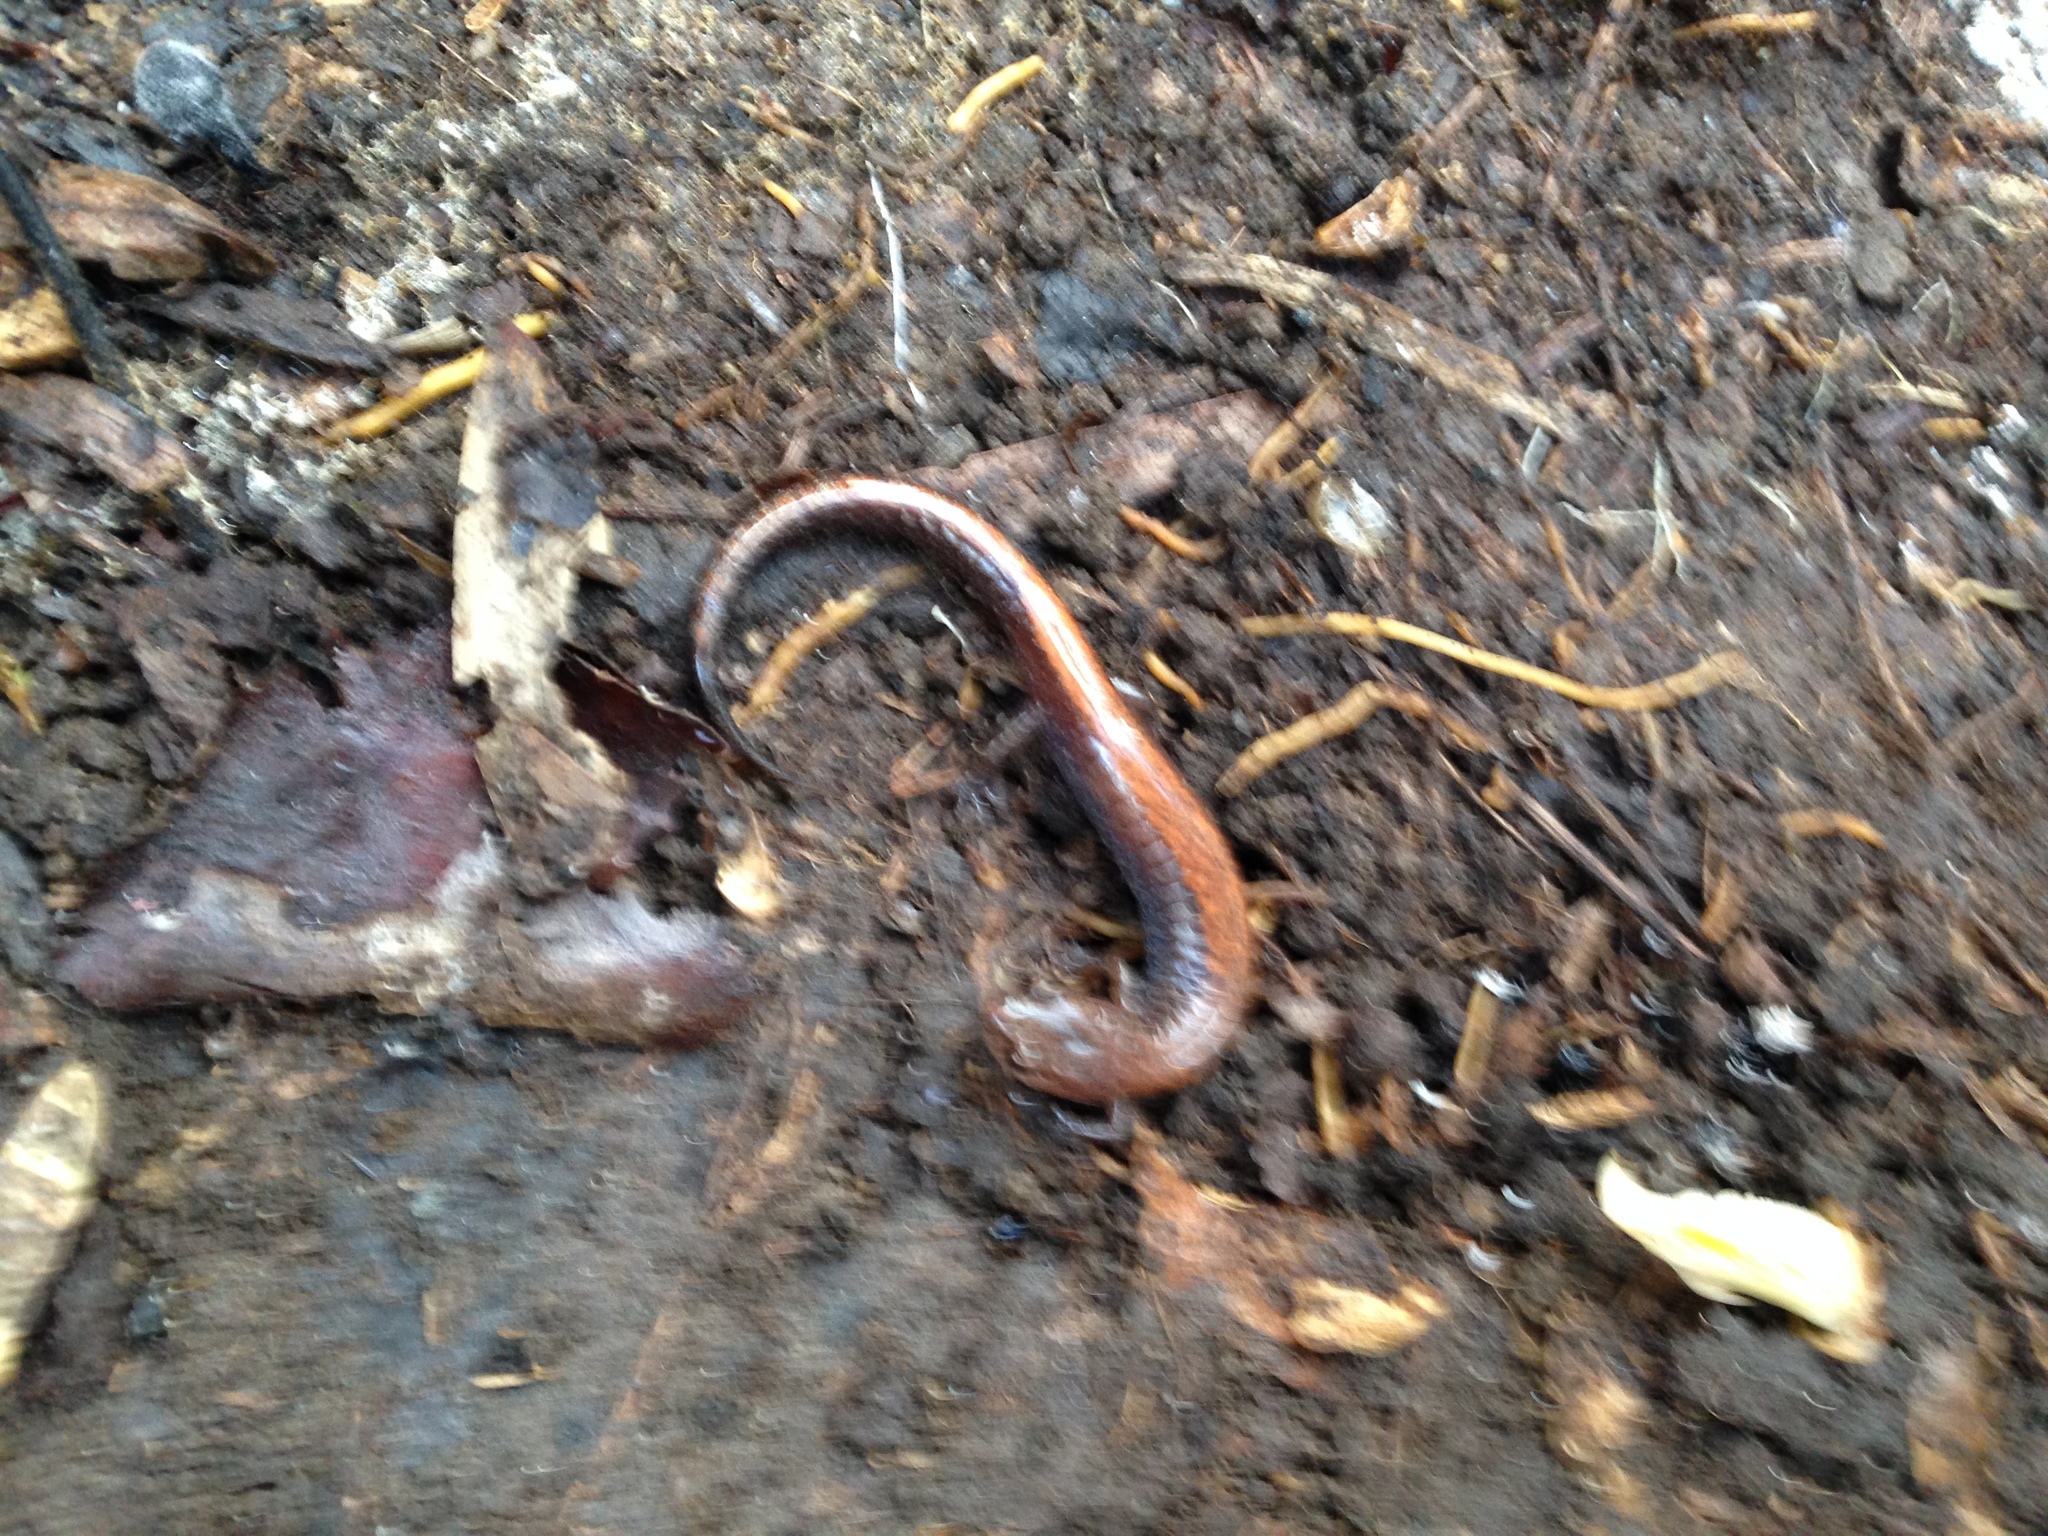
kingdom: Animalia
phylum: Chordata
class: Amphibia
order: Caudata
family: Plethodontidae
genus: Plethodon
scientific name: Plethodon serratus
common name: Southern red-backed salamander
